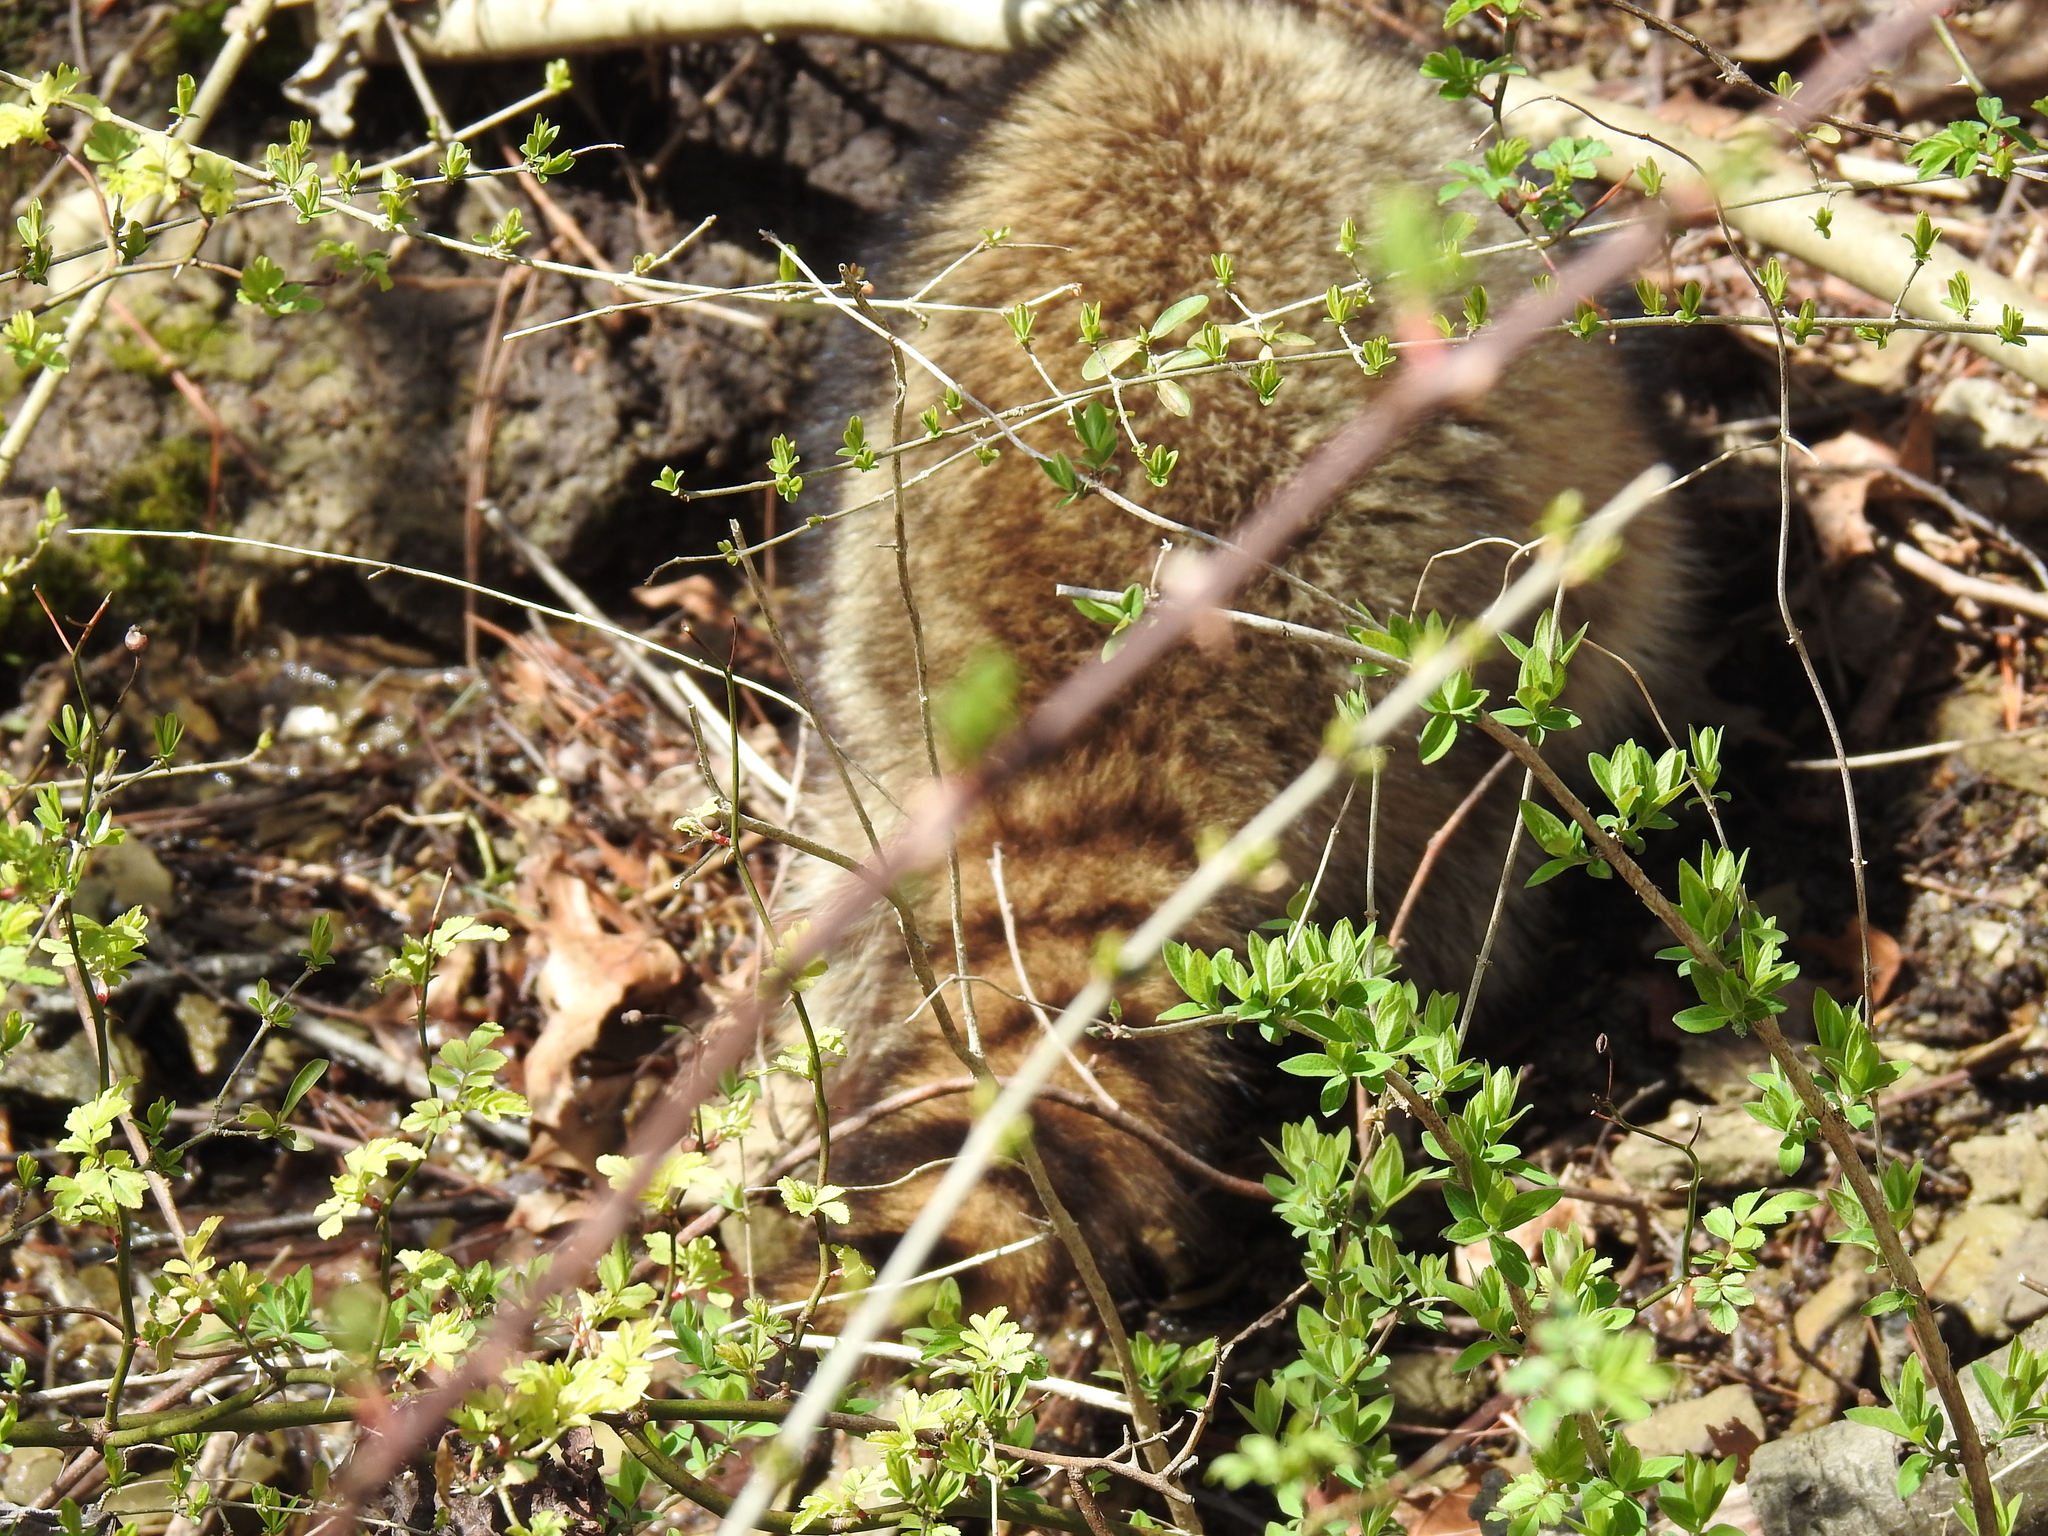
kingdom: Animalia
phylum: Chordata
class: Mammalia
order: Carnivora
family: Procyonidae
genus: Procyon
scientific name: Procyon lotor
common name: Raccoon
